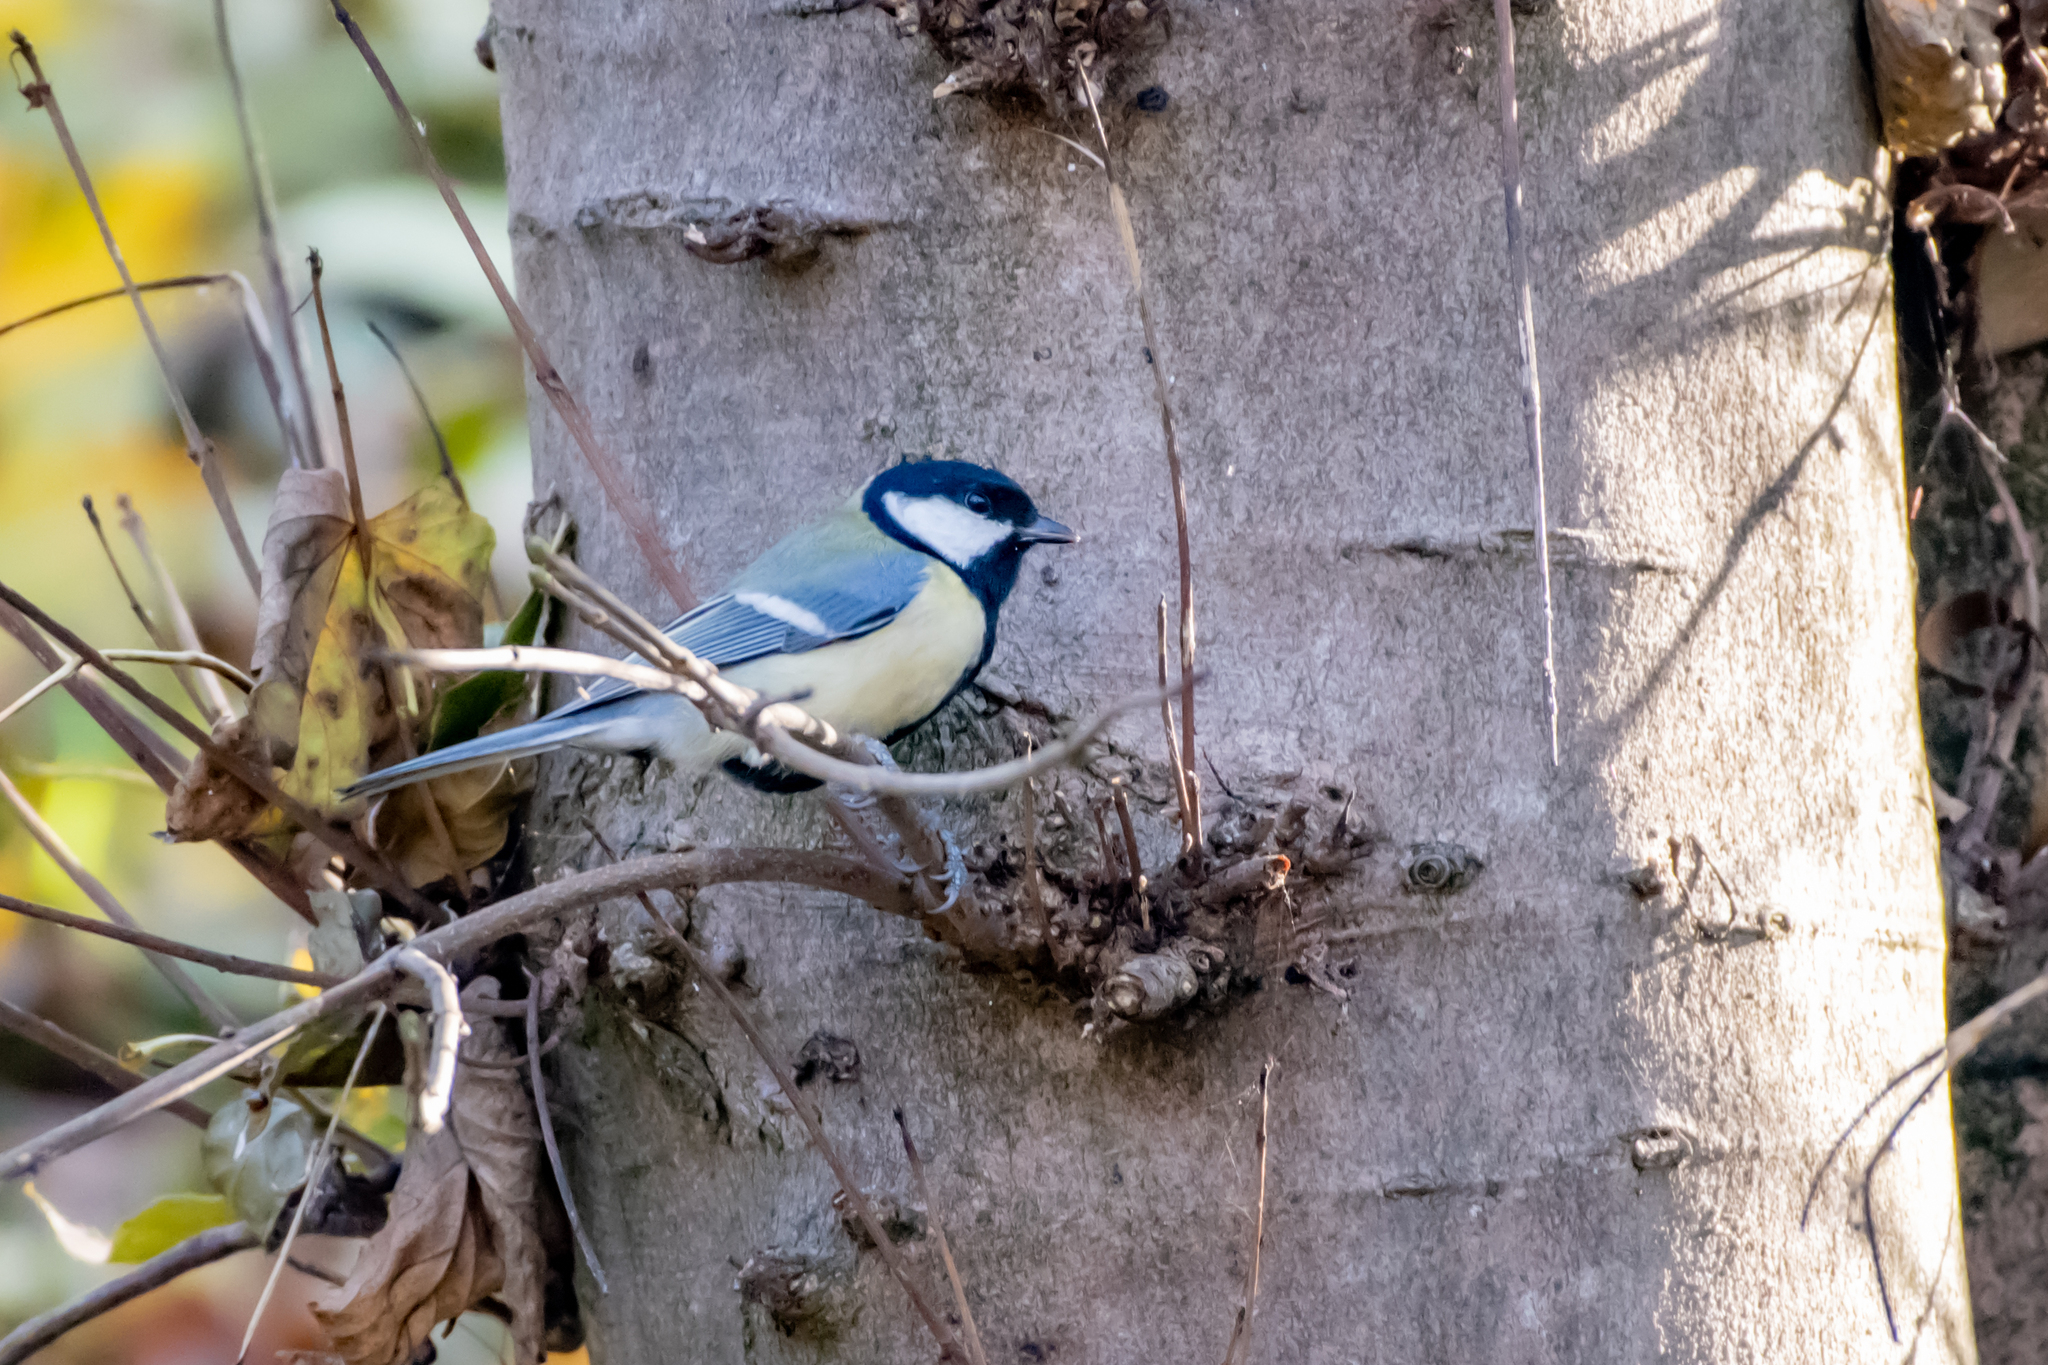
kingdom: Animalia
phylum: Chordata
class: Aves
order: Passeriformes
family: Paridae
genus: Parus
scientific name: Parus major
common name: Great tit
